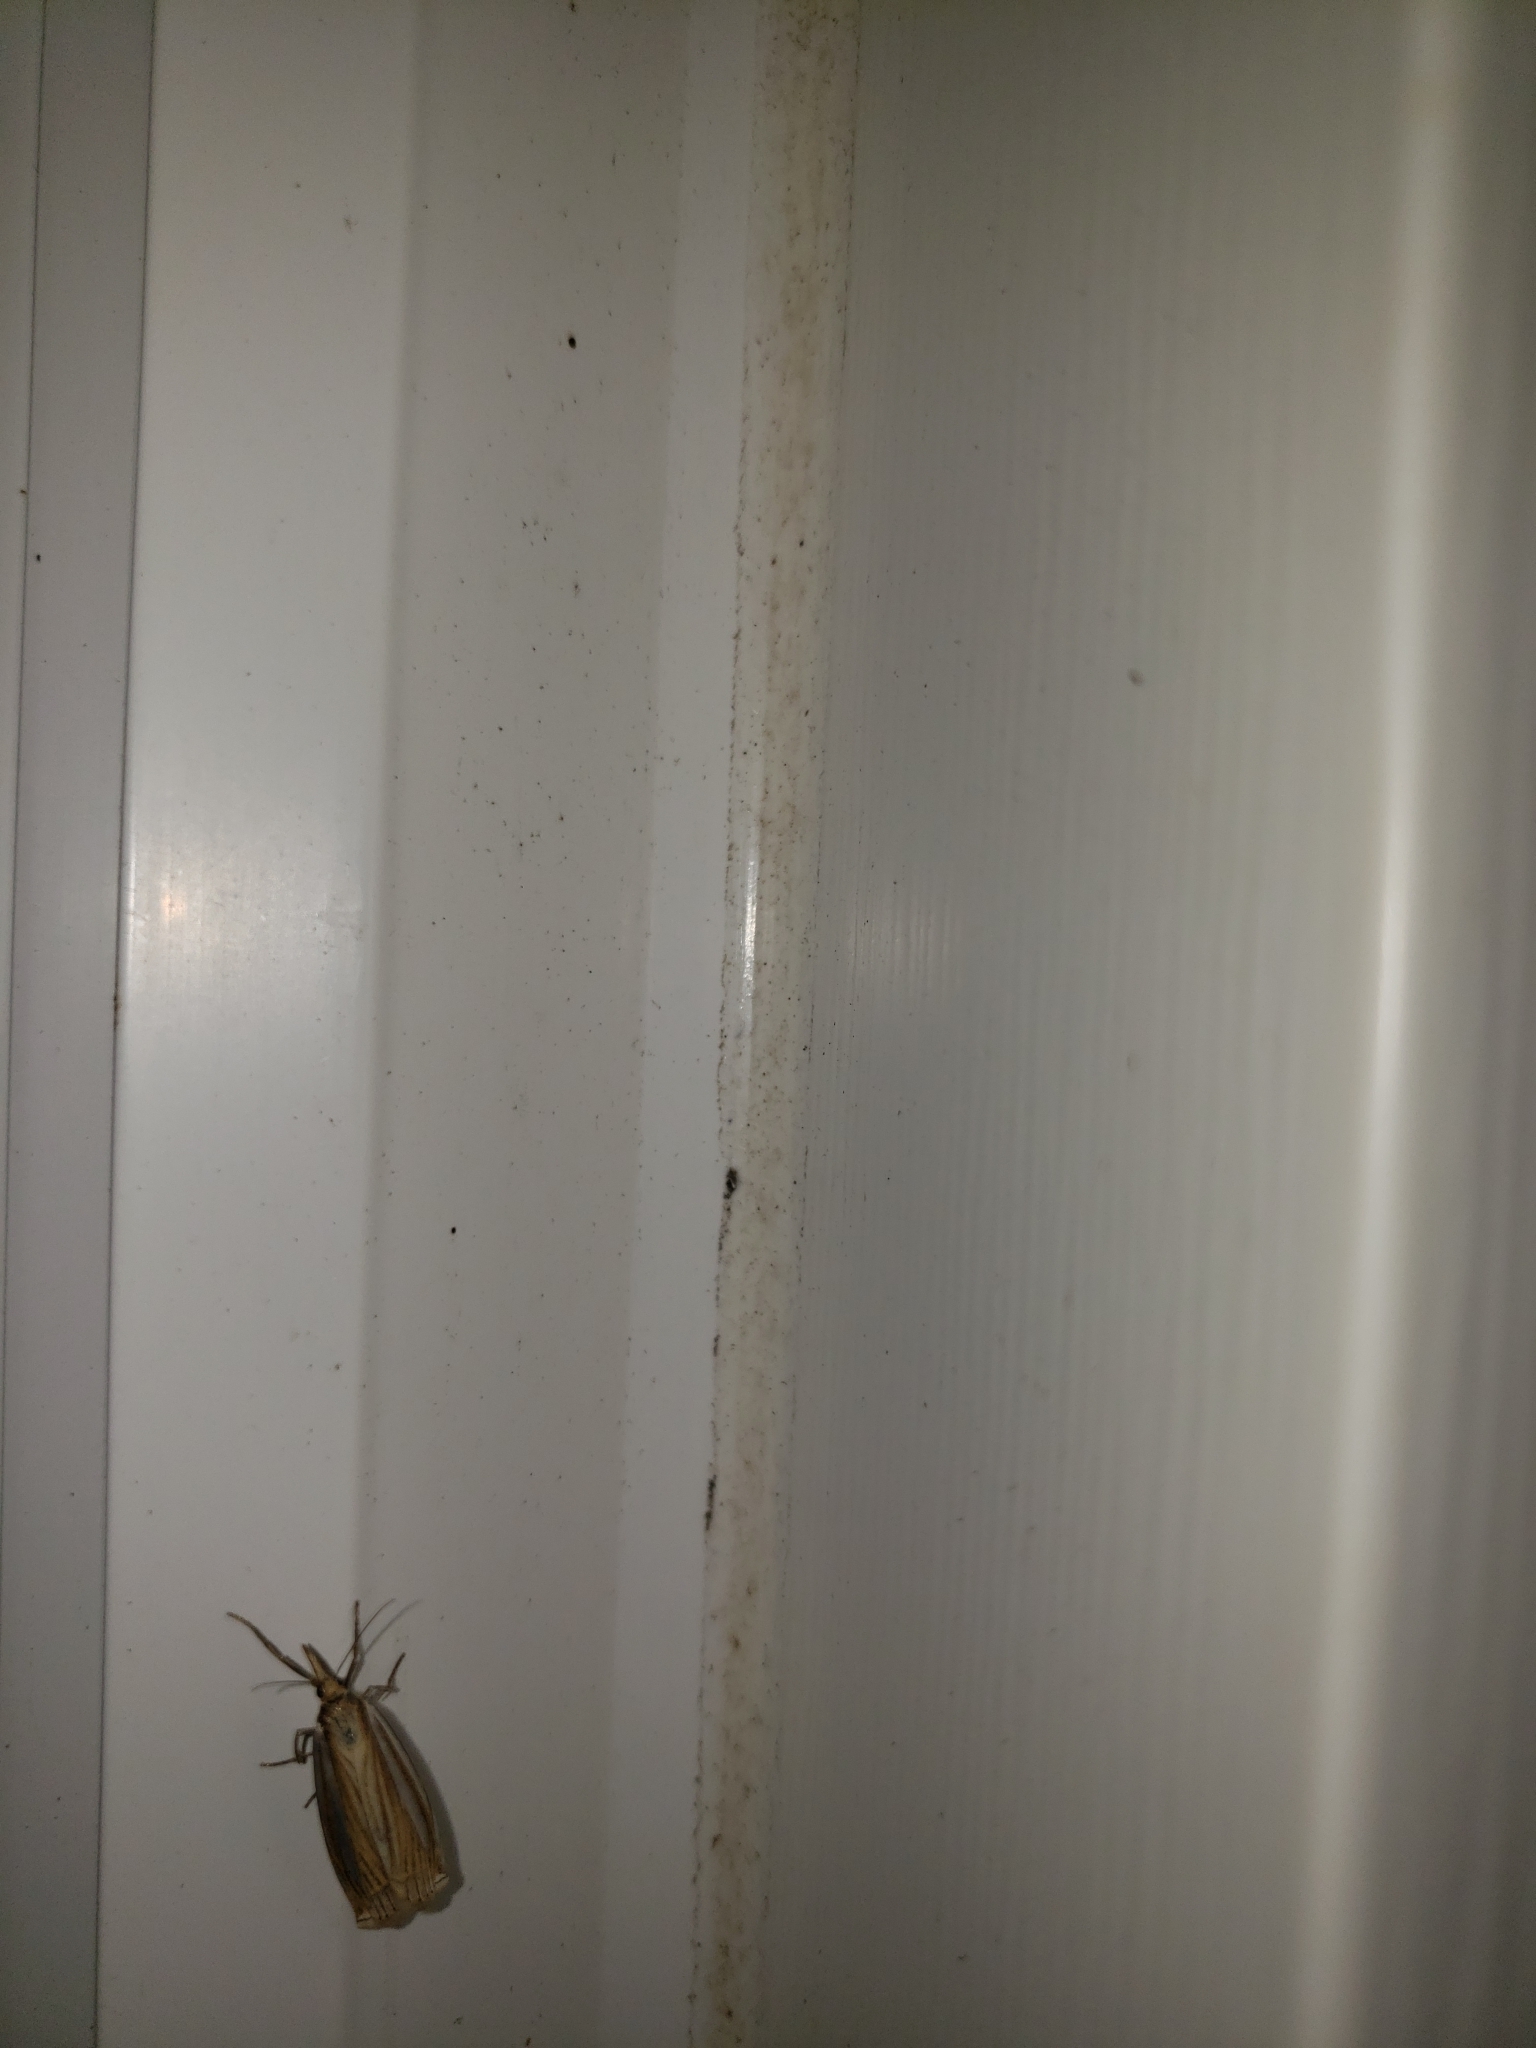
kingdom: Animalia
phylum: Arthropoda
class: Insecta
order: Lepidoptera
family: Crambidae
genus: Crambus
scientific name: Crambus laqueatellus
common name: Eastern grass-veneer
